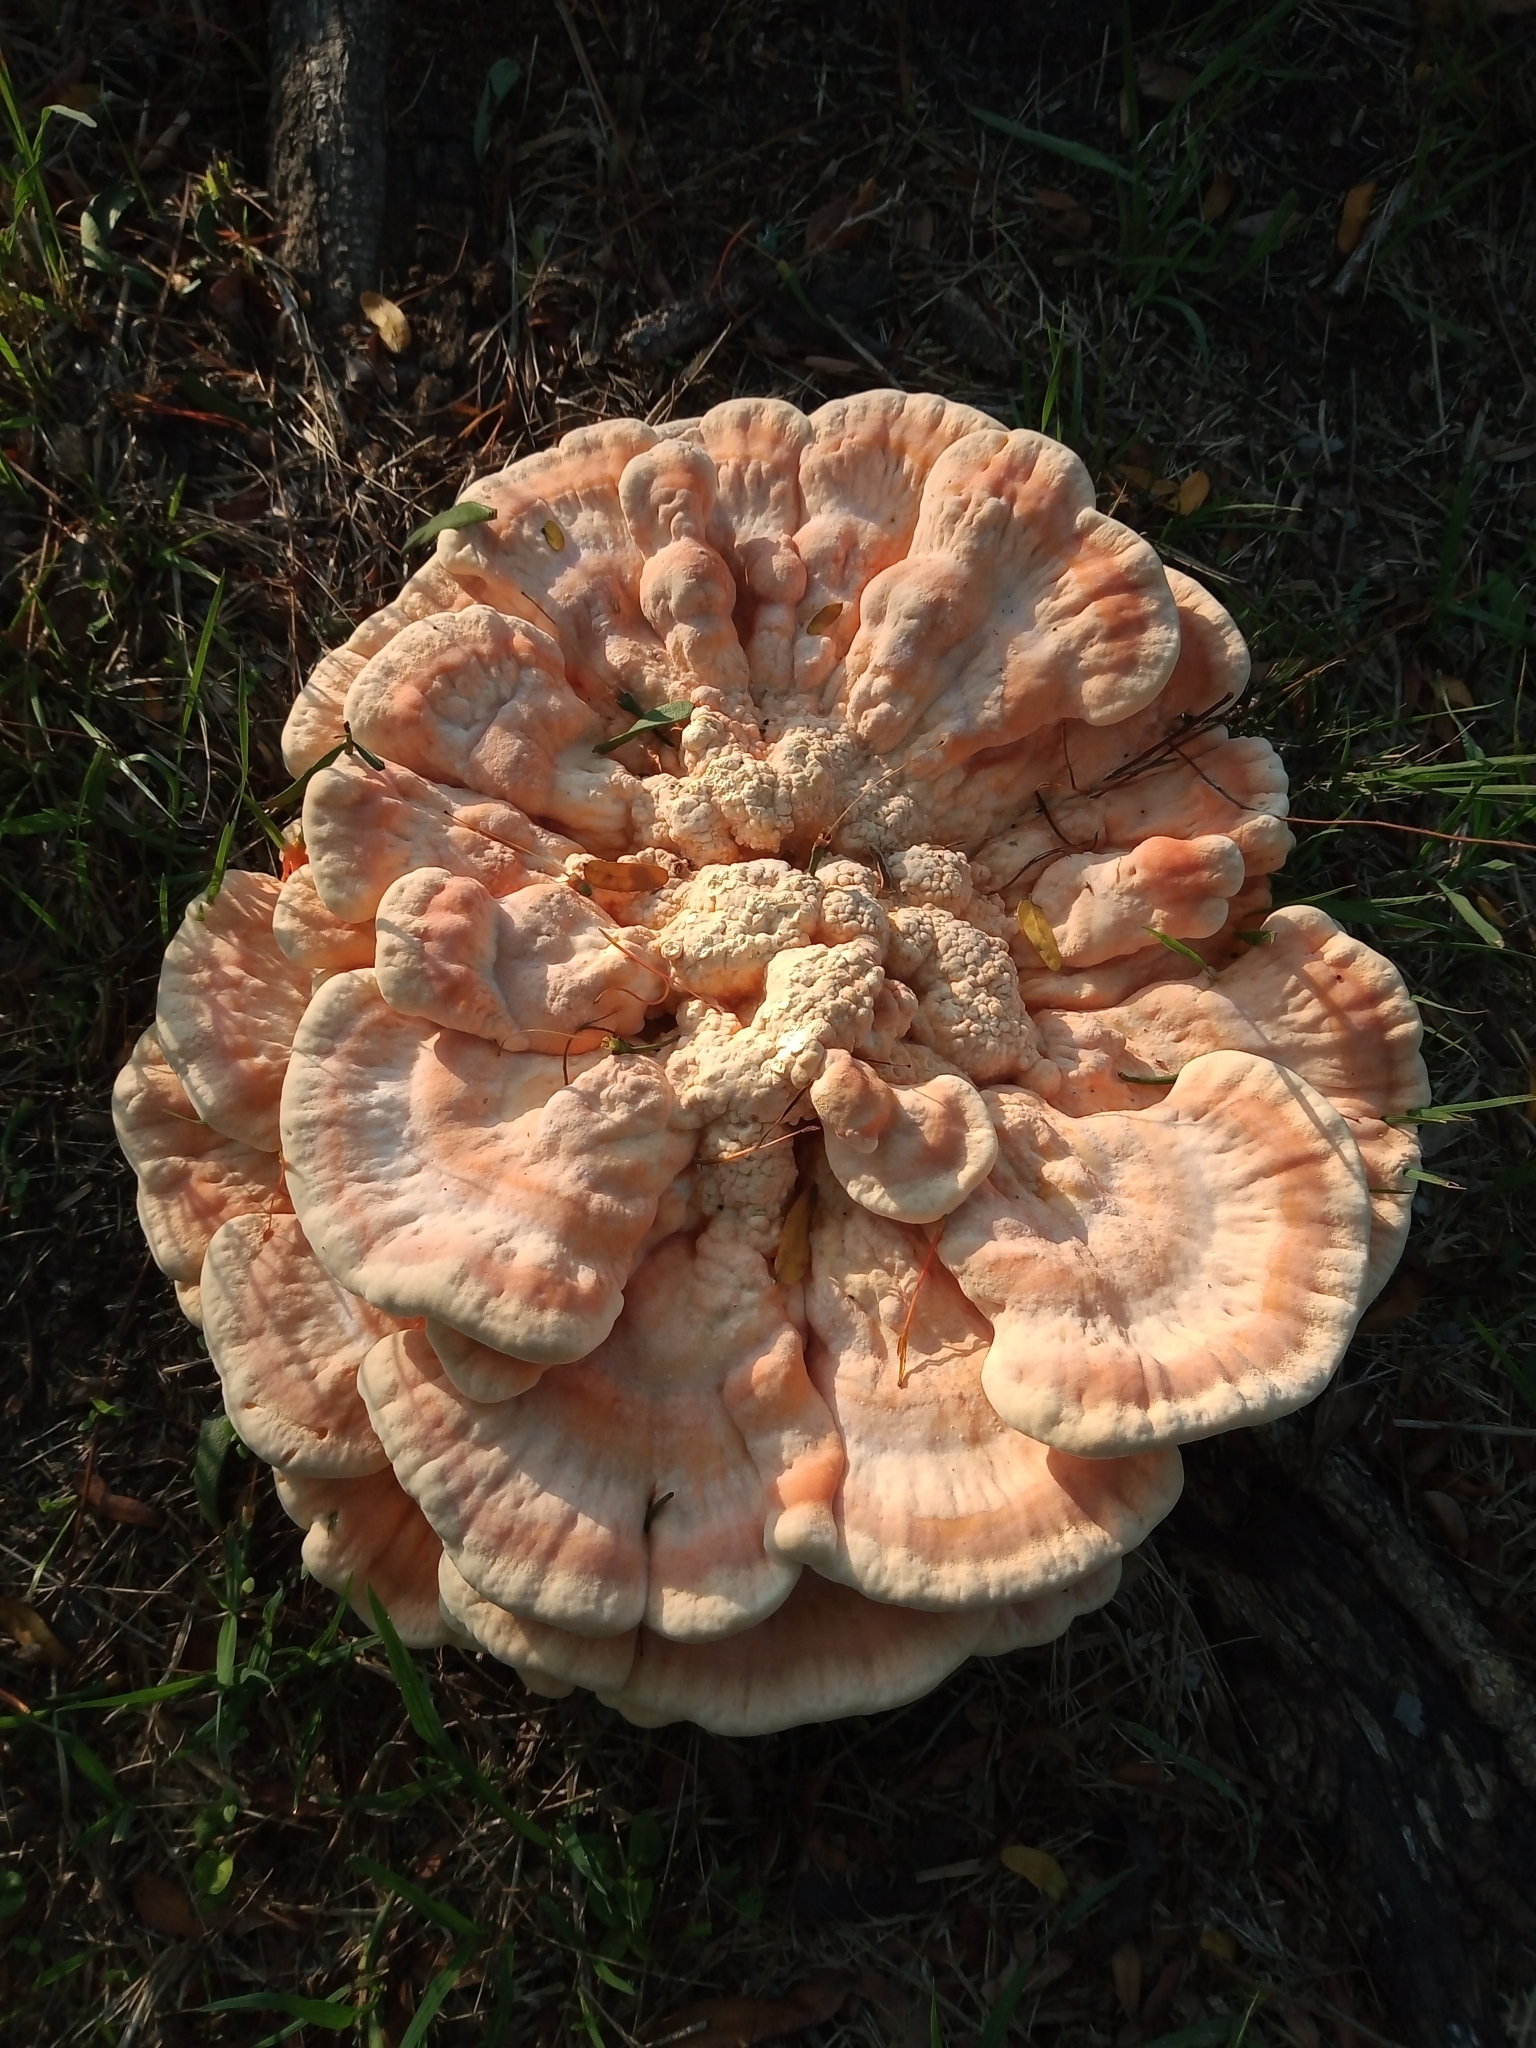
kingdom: Fungi
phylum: Basidiomycota
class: Agaricomycetes
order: Polyporales
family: Laetiporaceae
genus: Laetiporus
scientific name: Laetiporus sulphureus
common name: Chicken of the woods
